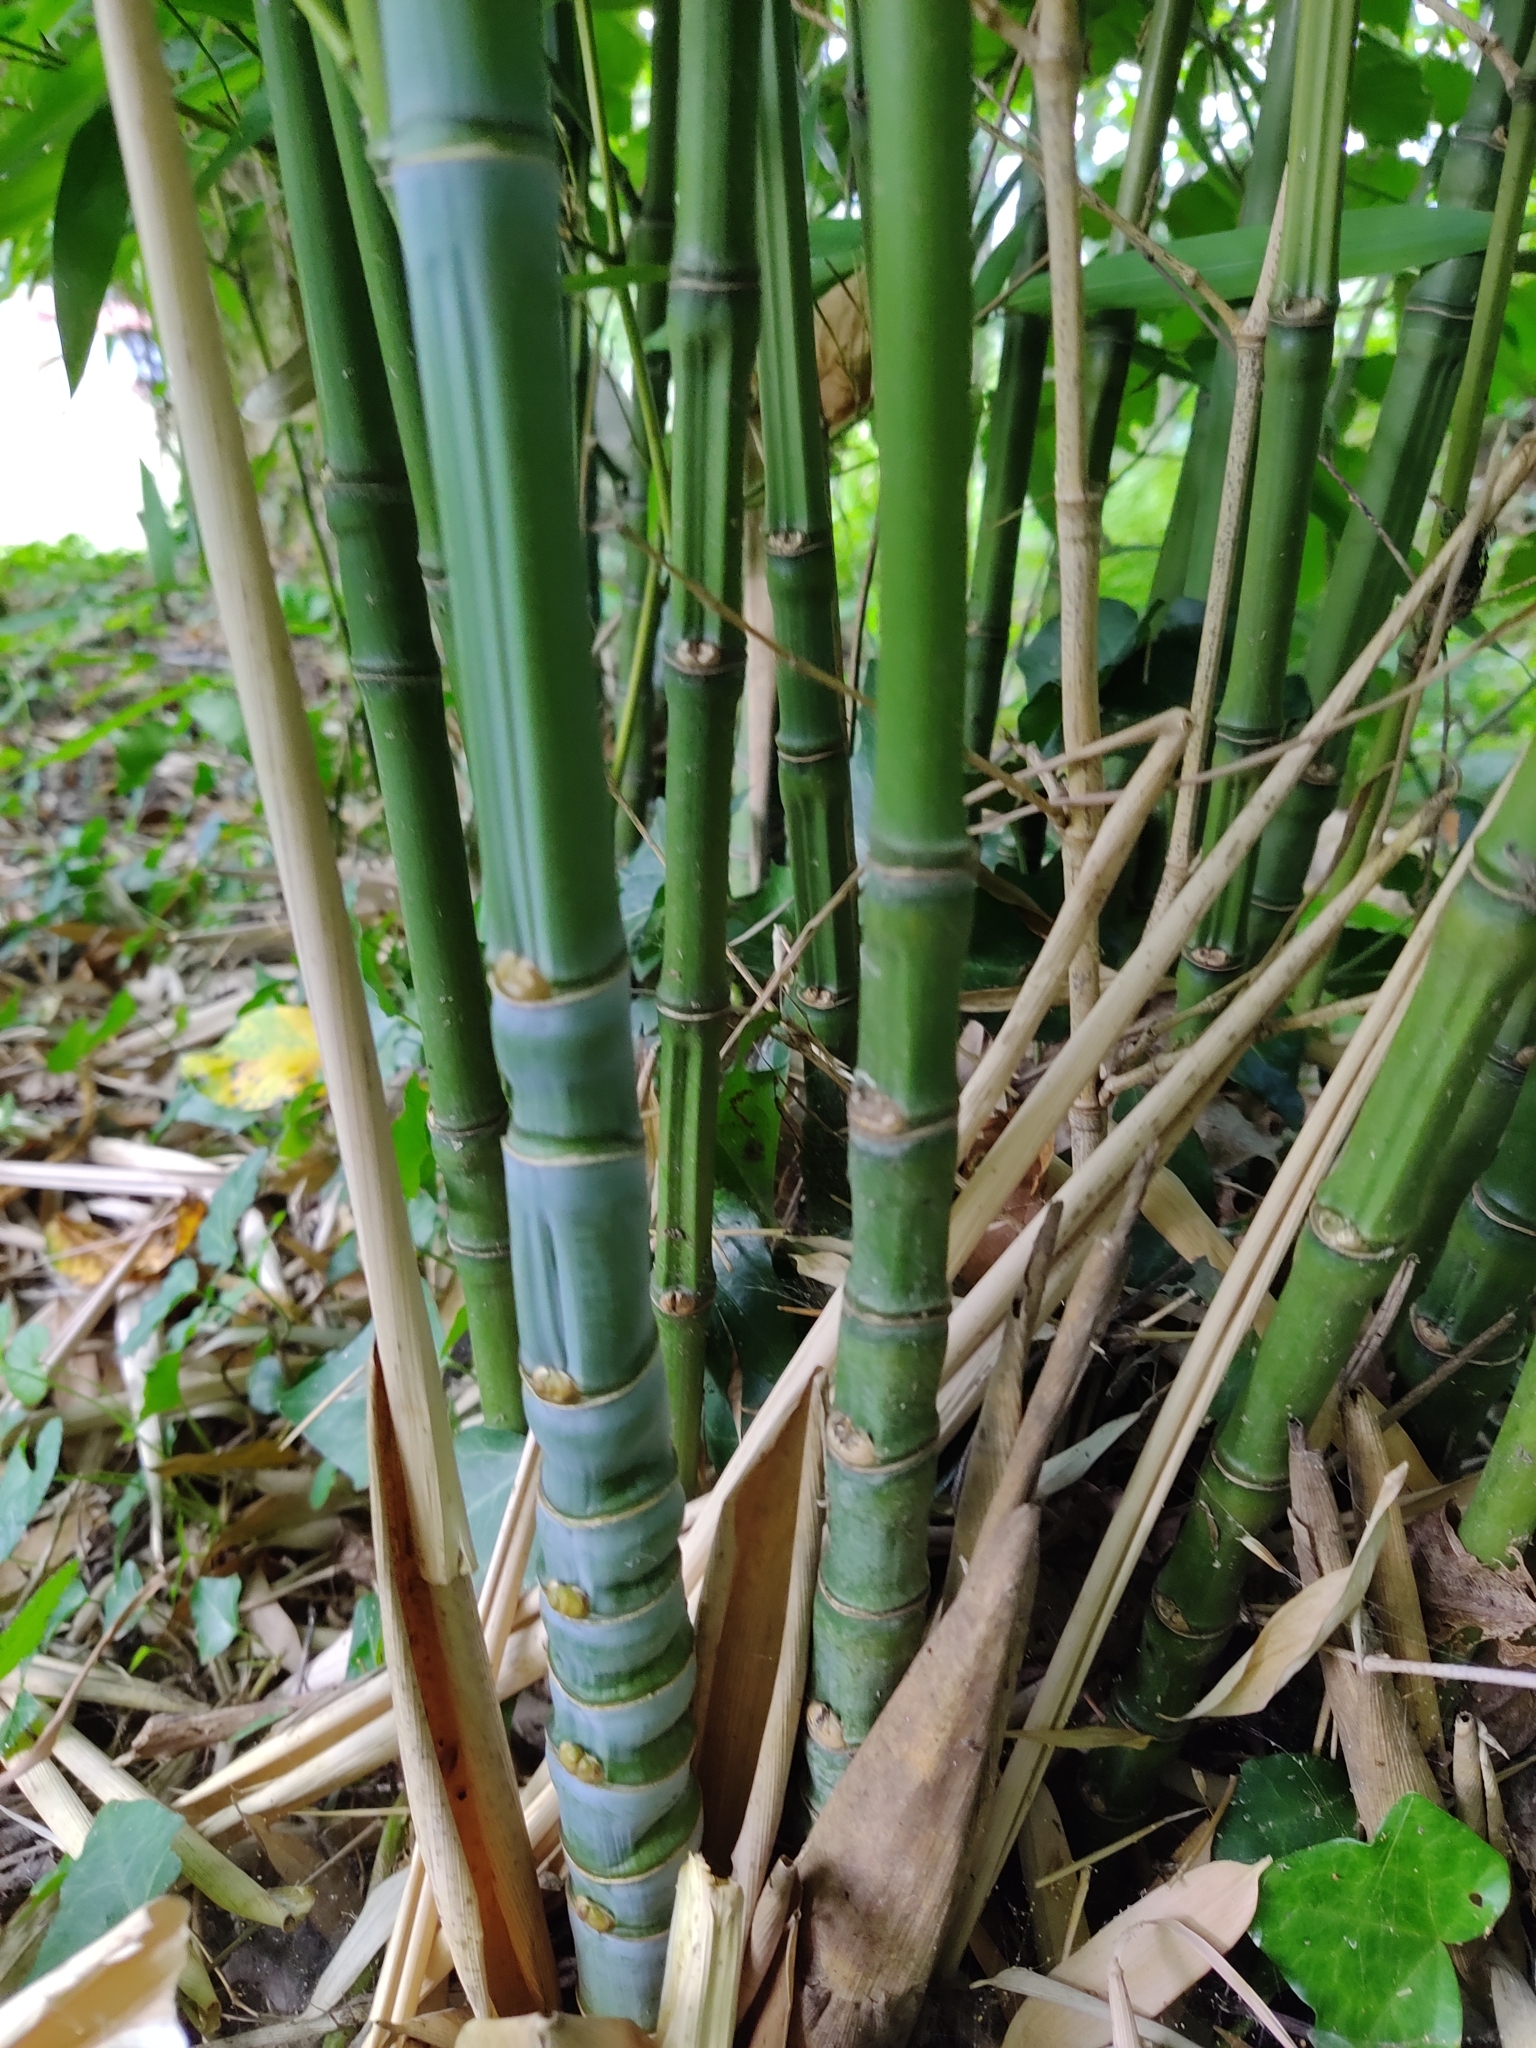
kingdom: Plantae
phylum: Tracheophyta
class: Liliopsida
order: Poales
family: Poaceae
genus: Phyllostachys
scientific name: Phyllostachys aurea
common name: Golden bamboo
